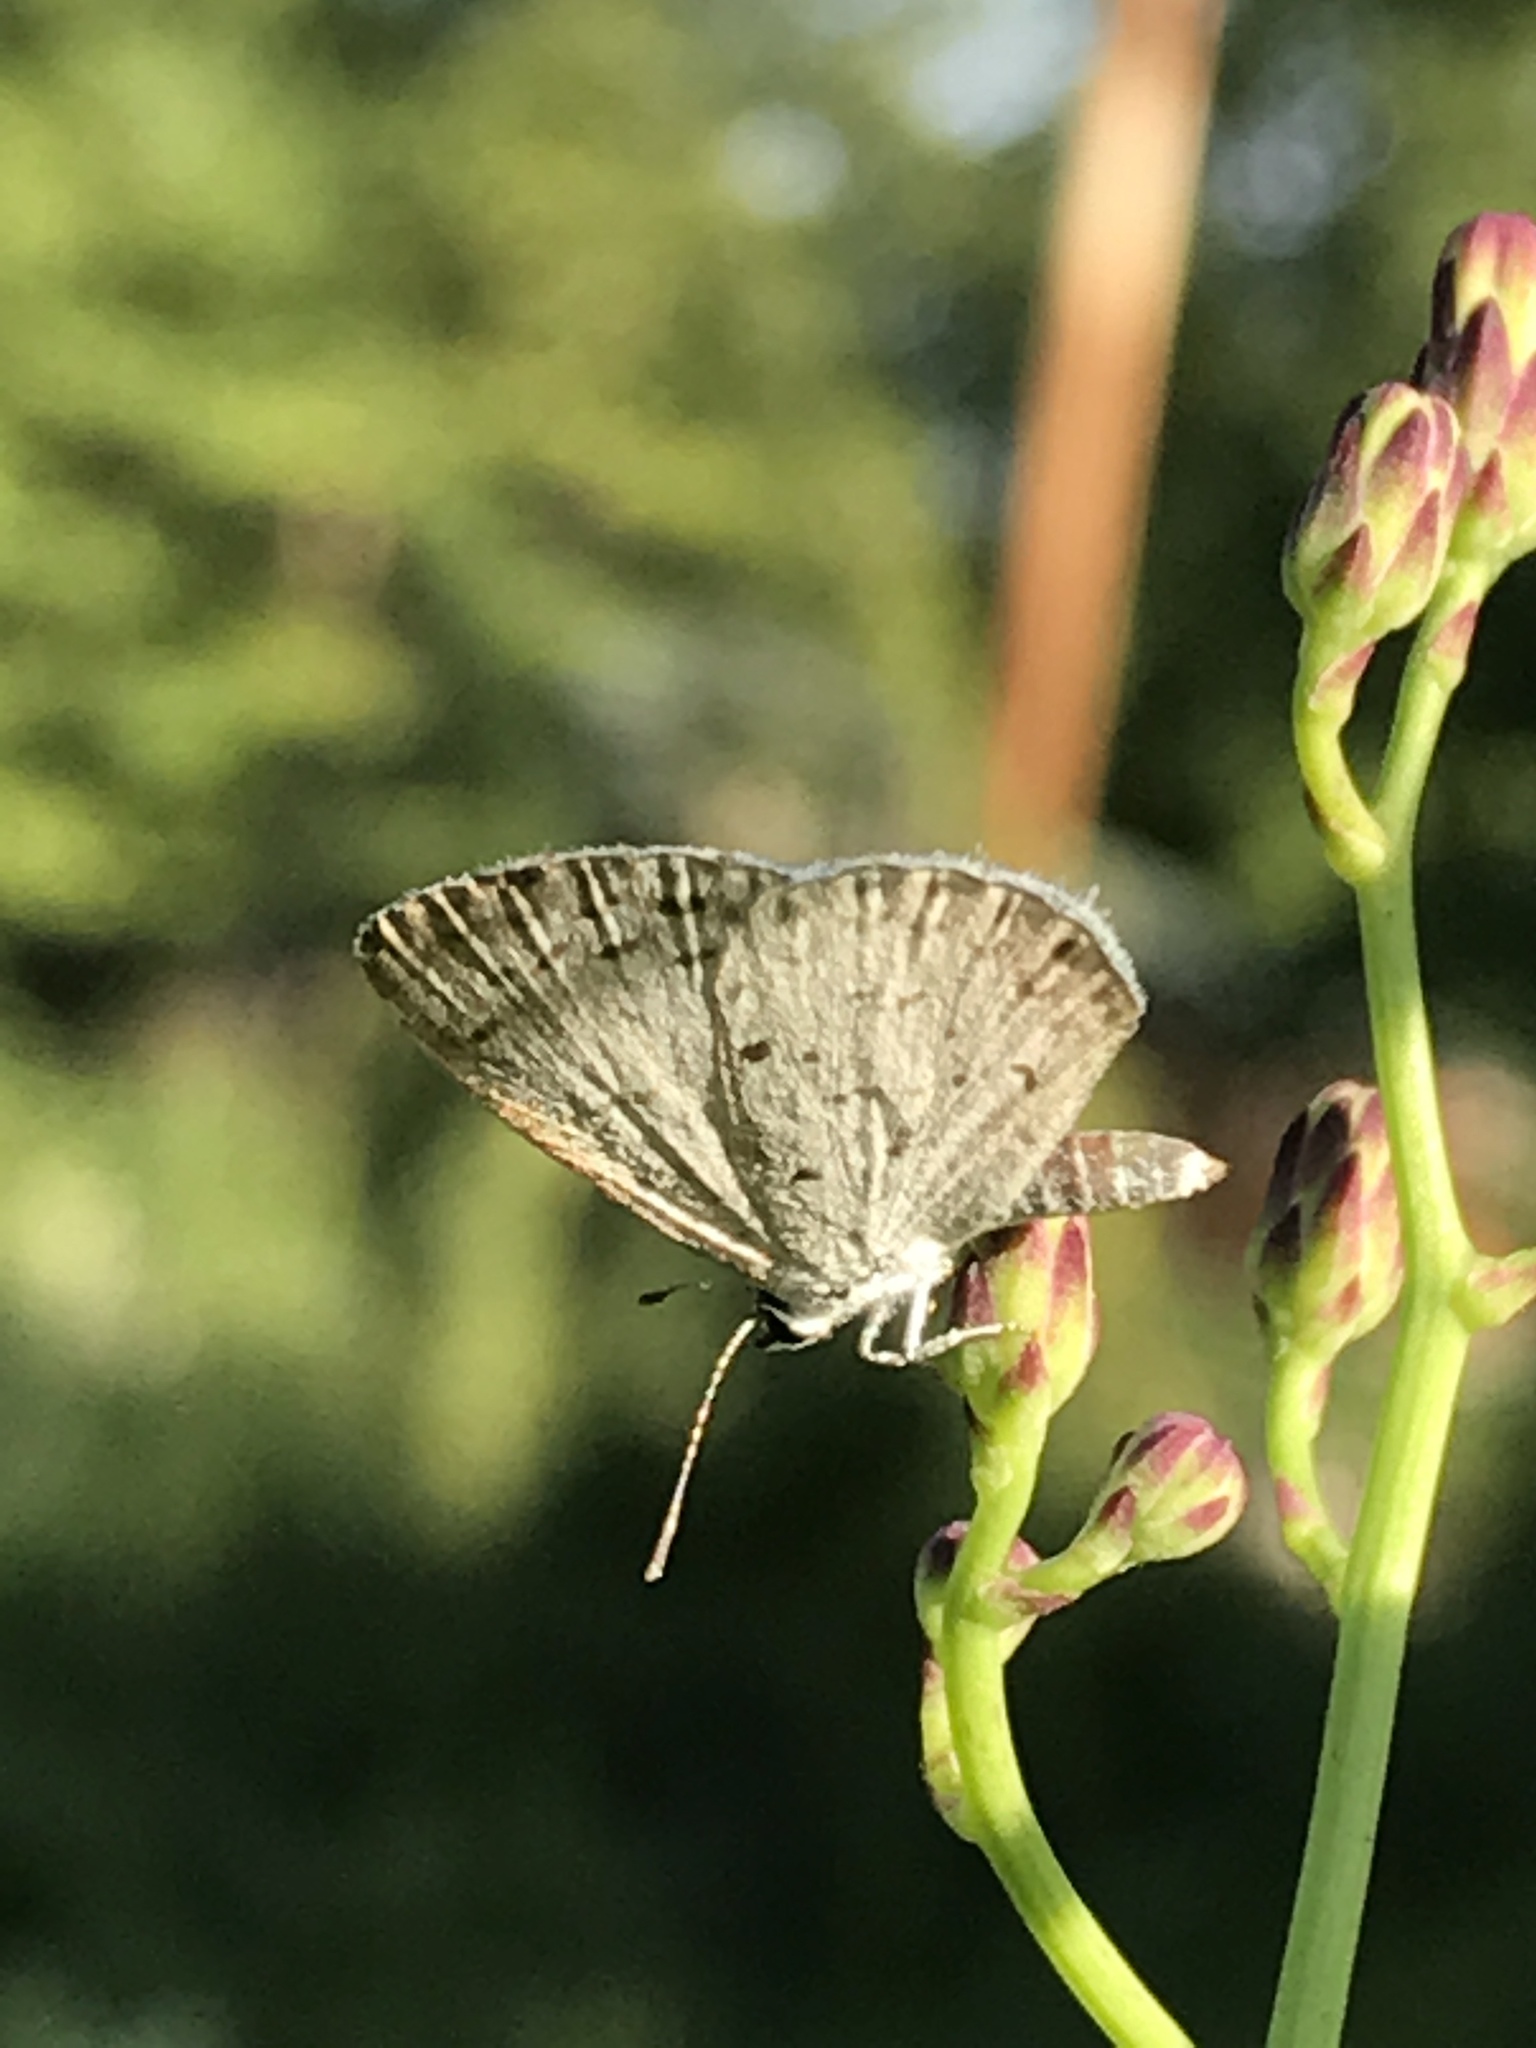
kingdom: Animalia
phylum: Arthropoda
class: Insecta
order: Lepidoptera
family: Lycaenidae
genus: Cyaniris
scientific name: Cyaniris neglecta
